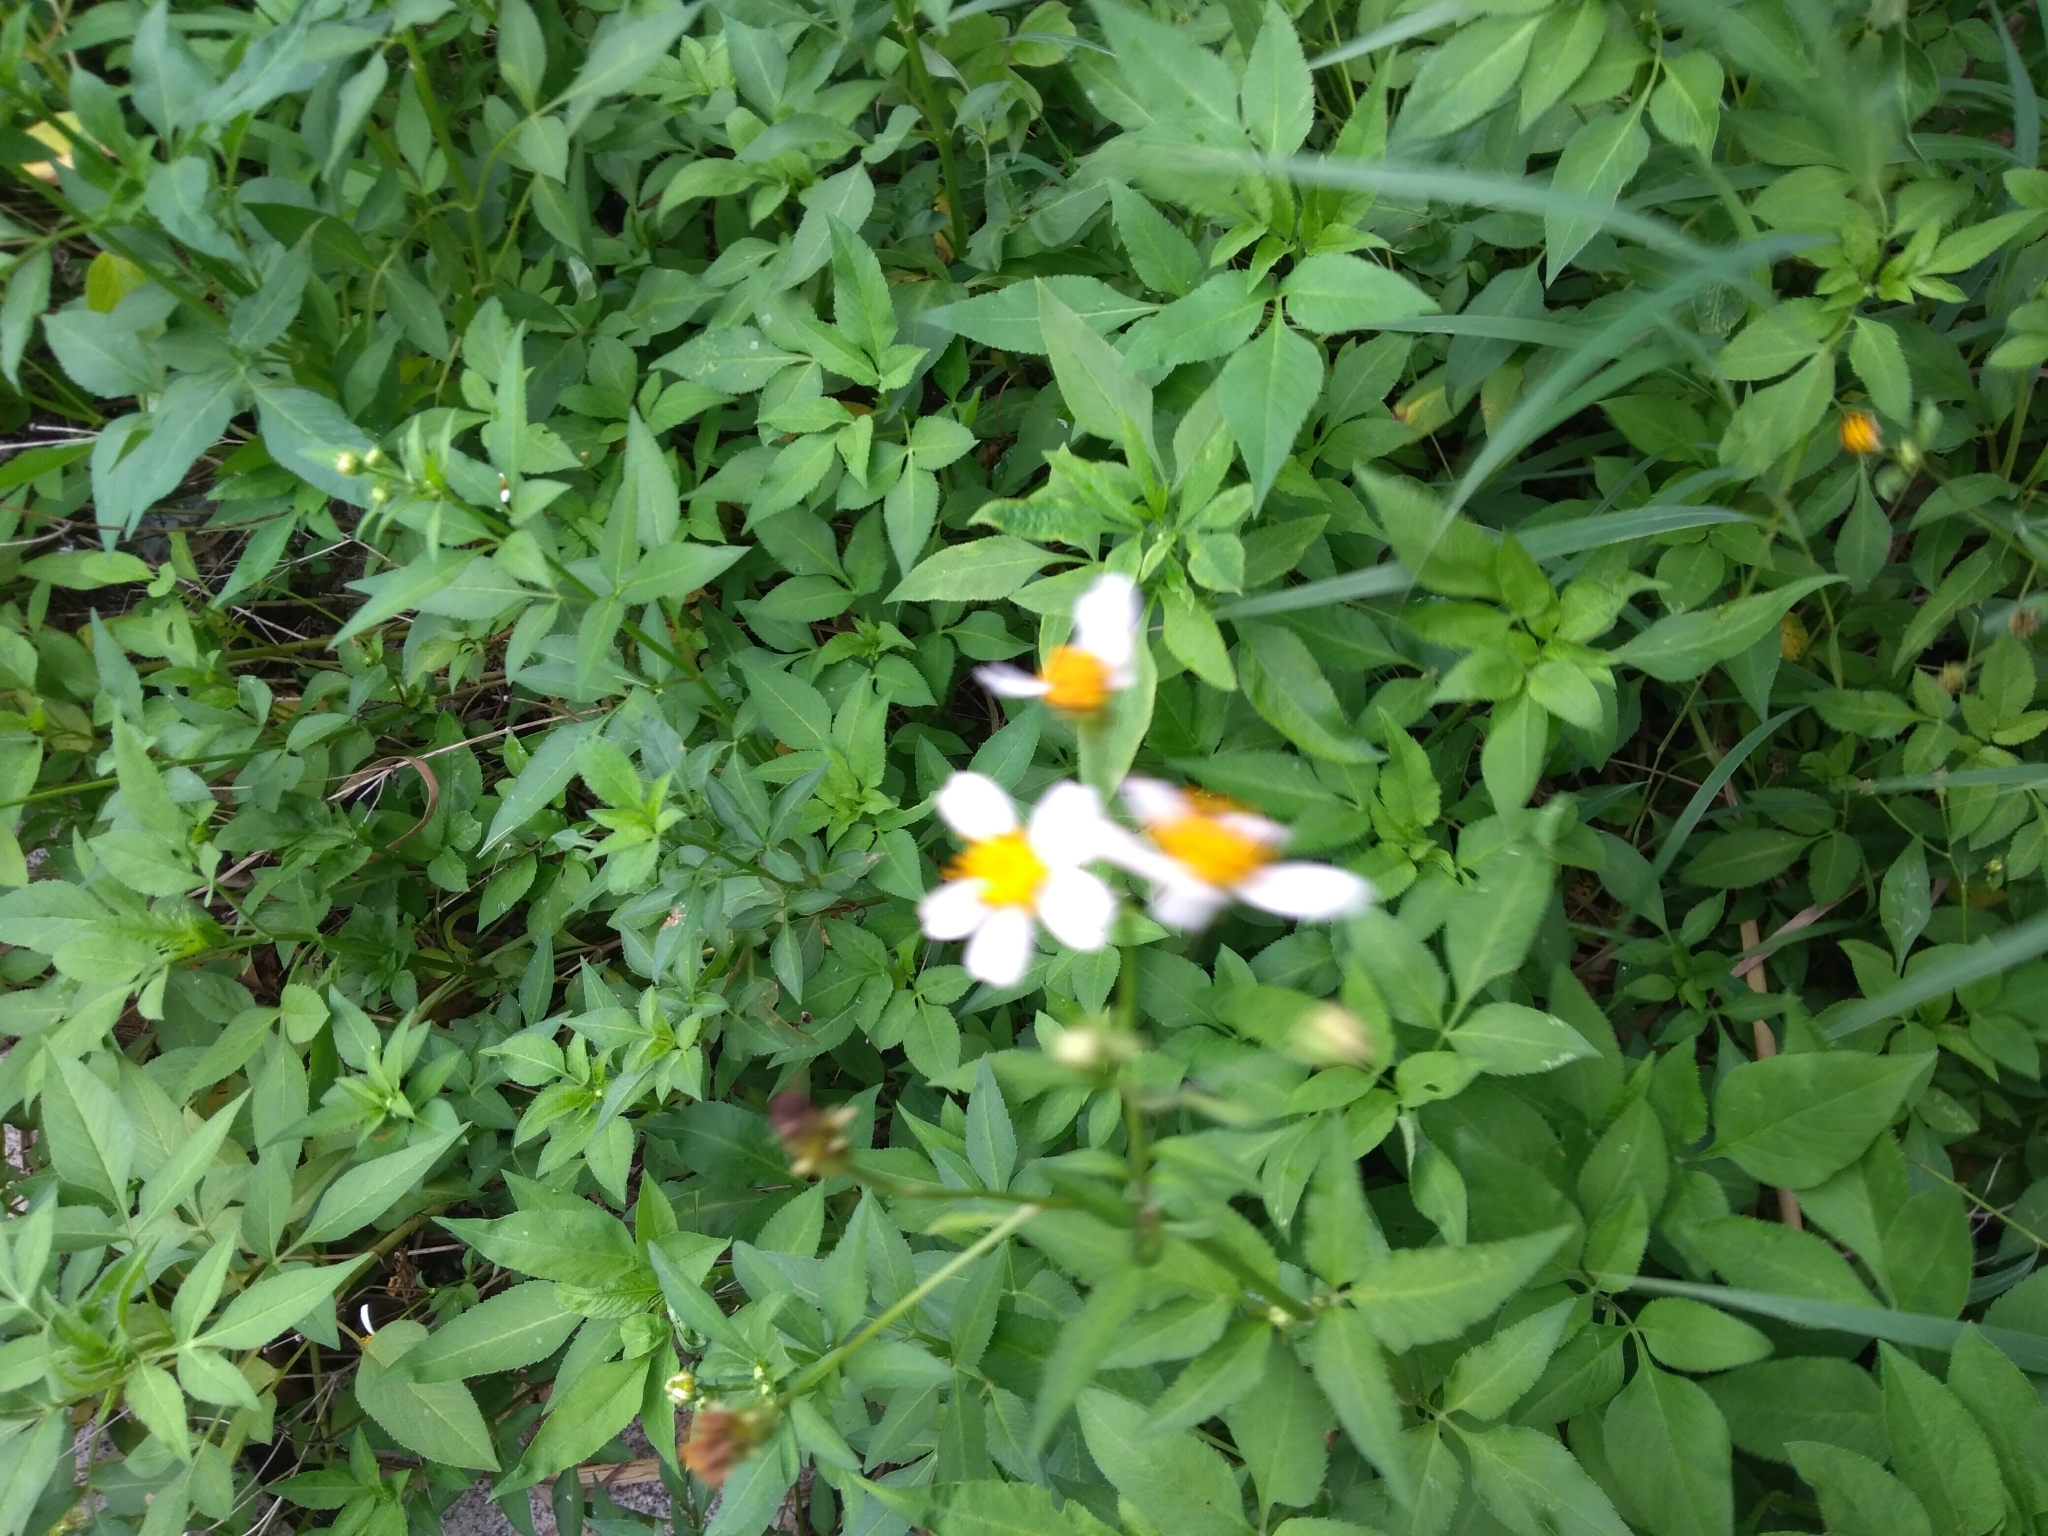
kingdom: Plantae
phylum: Tracheophyta
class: Magnoliopsida
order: Asterales
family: Asteraceae
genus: Bidens
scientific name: Bidens alba
